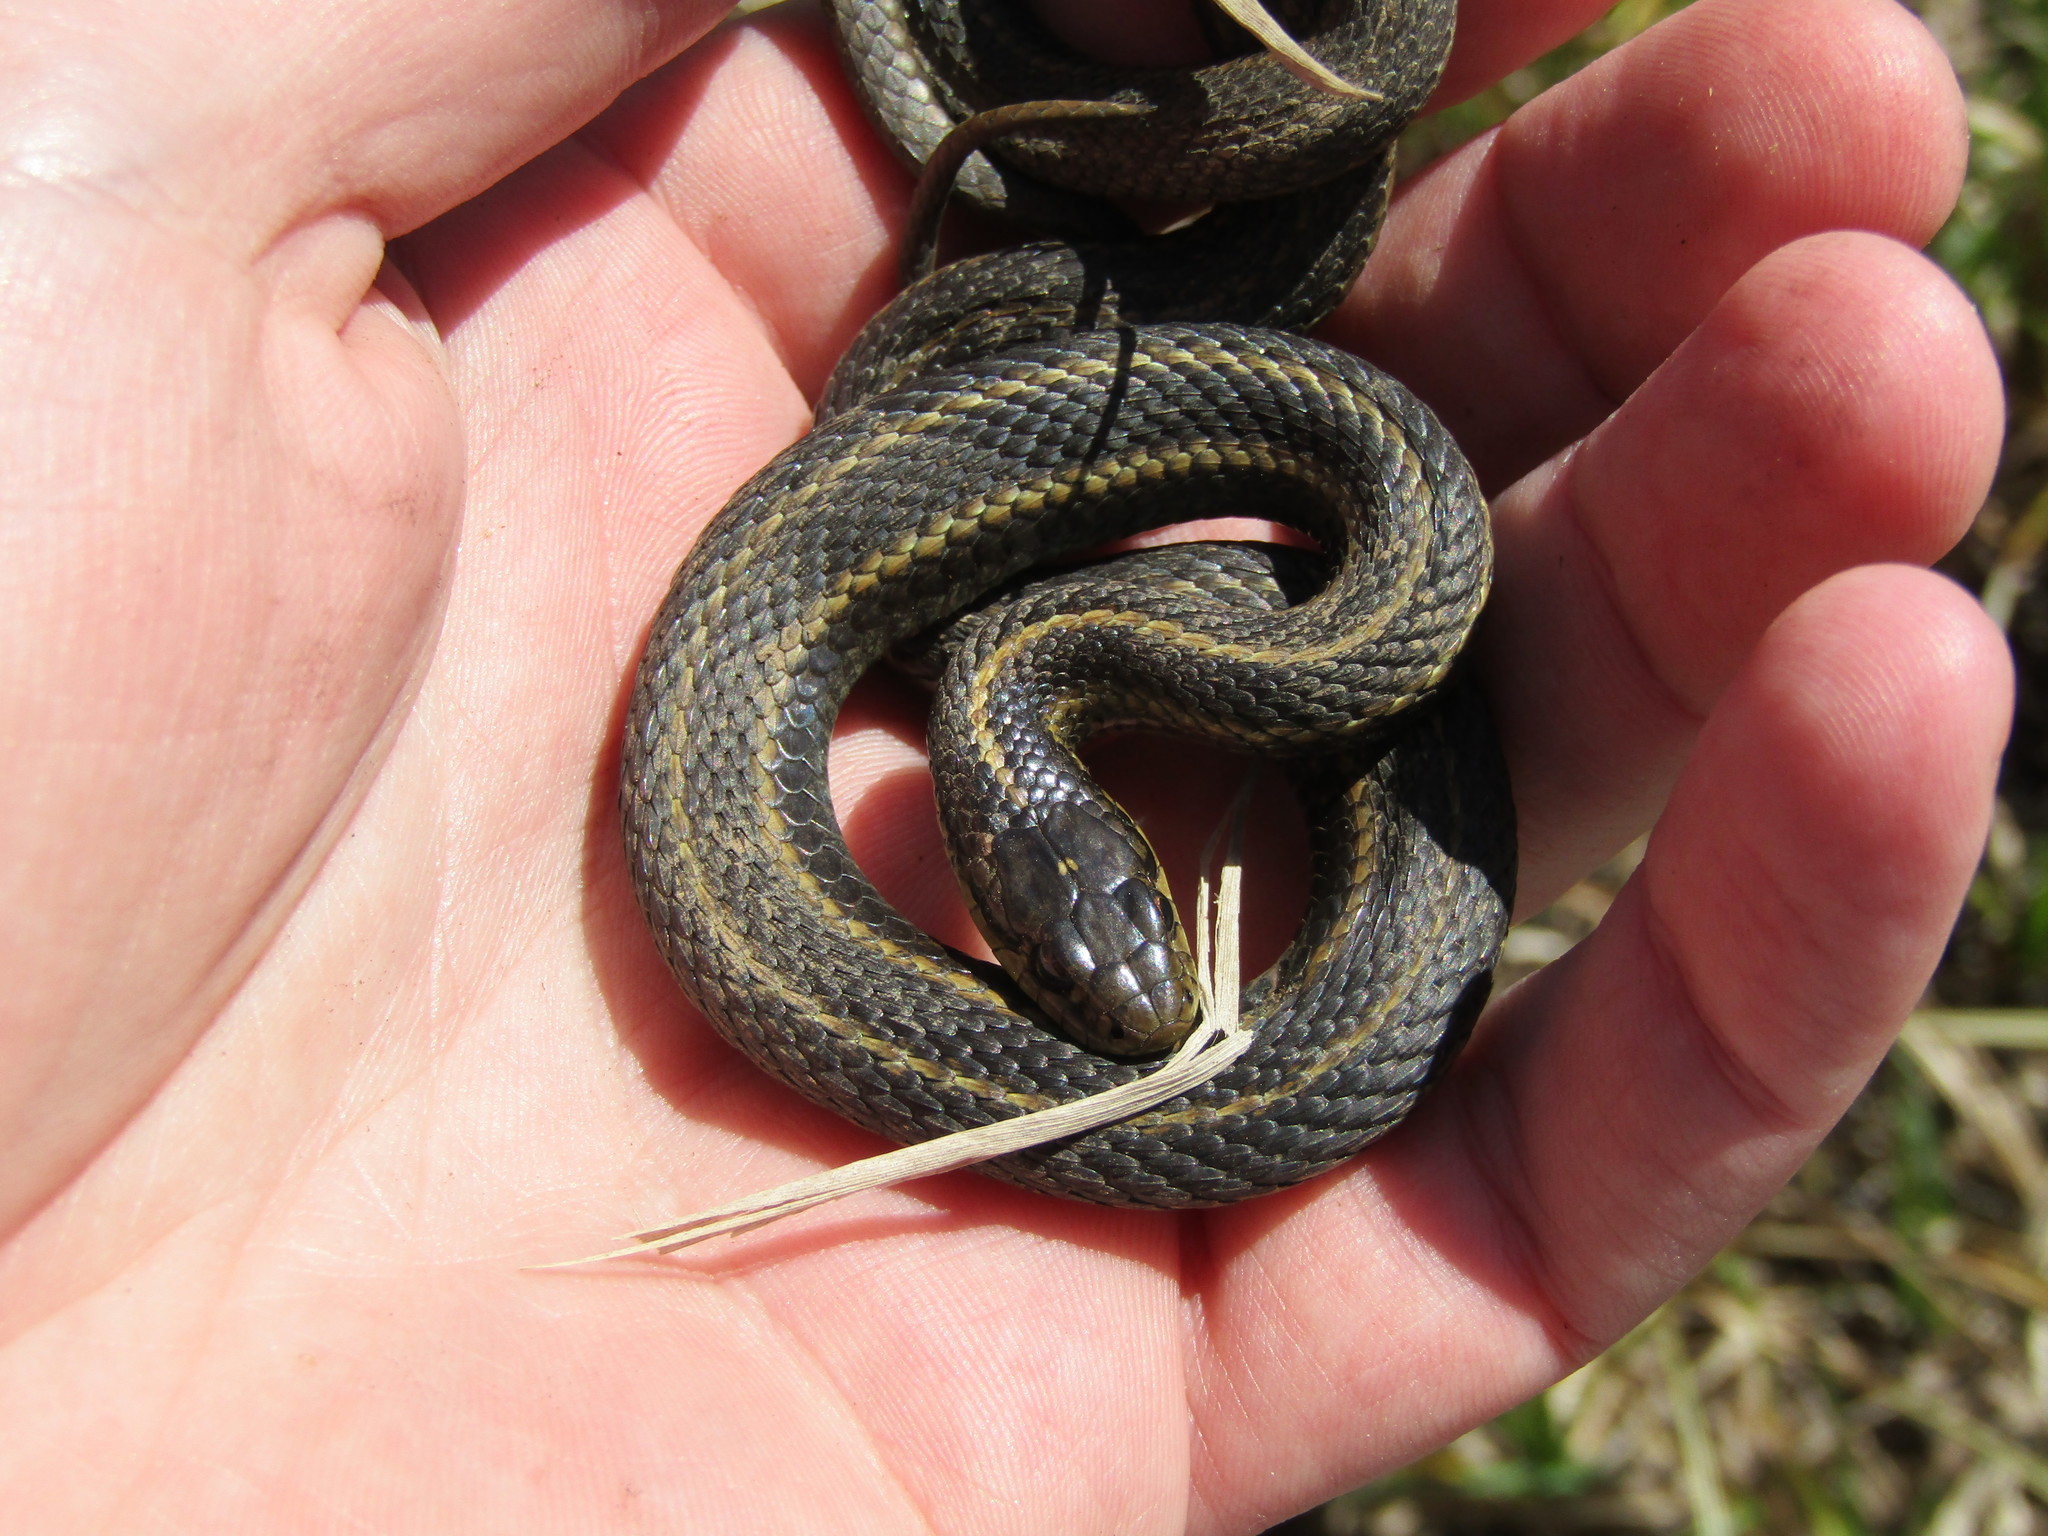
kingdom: Animalia
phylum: Chordata
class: Squamata
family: Colubridae
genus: Thamnophis
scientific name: Thamnophis ordinoides
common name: Northwestern garter snake
